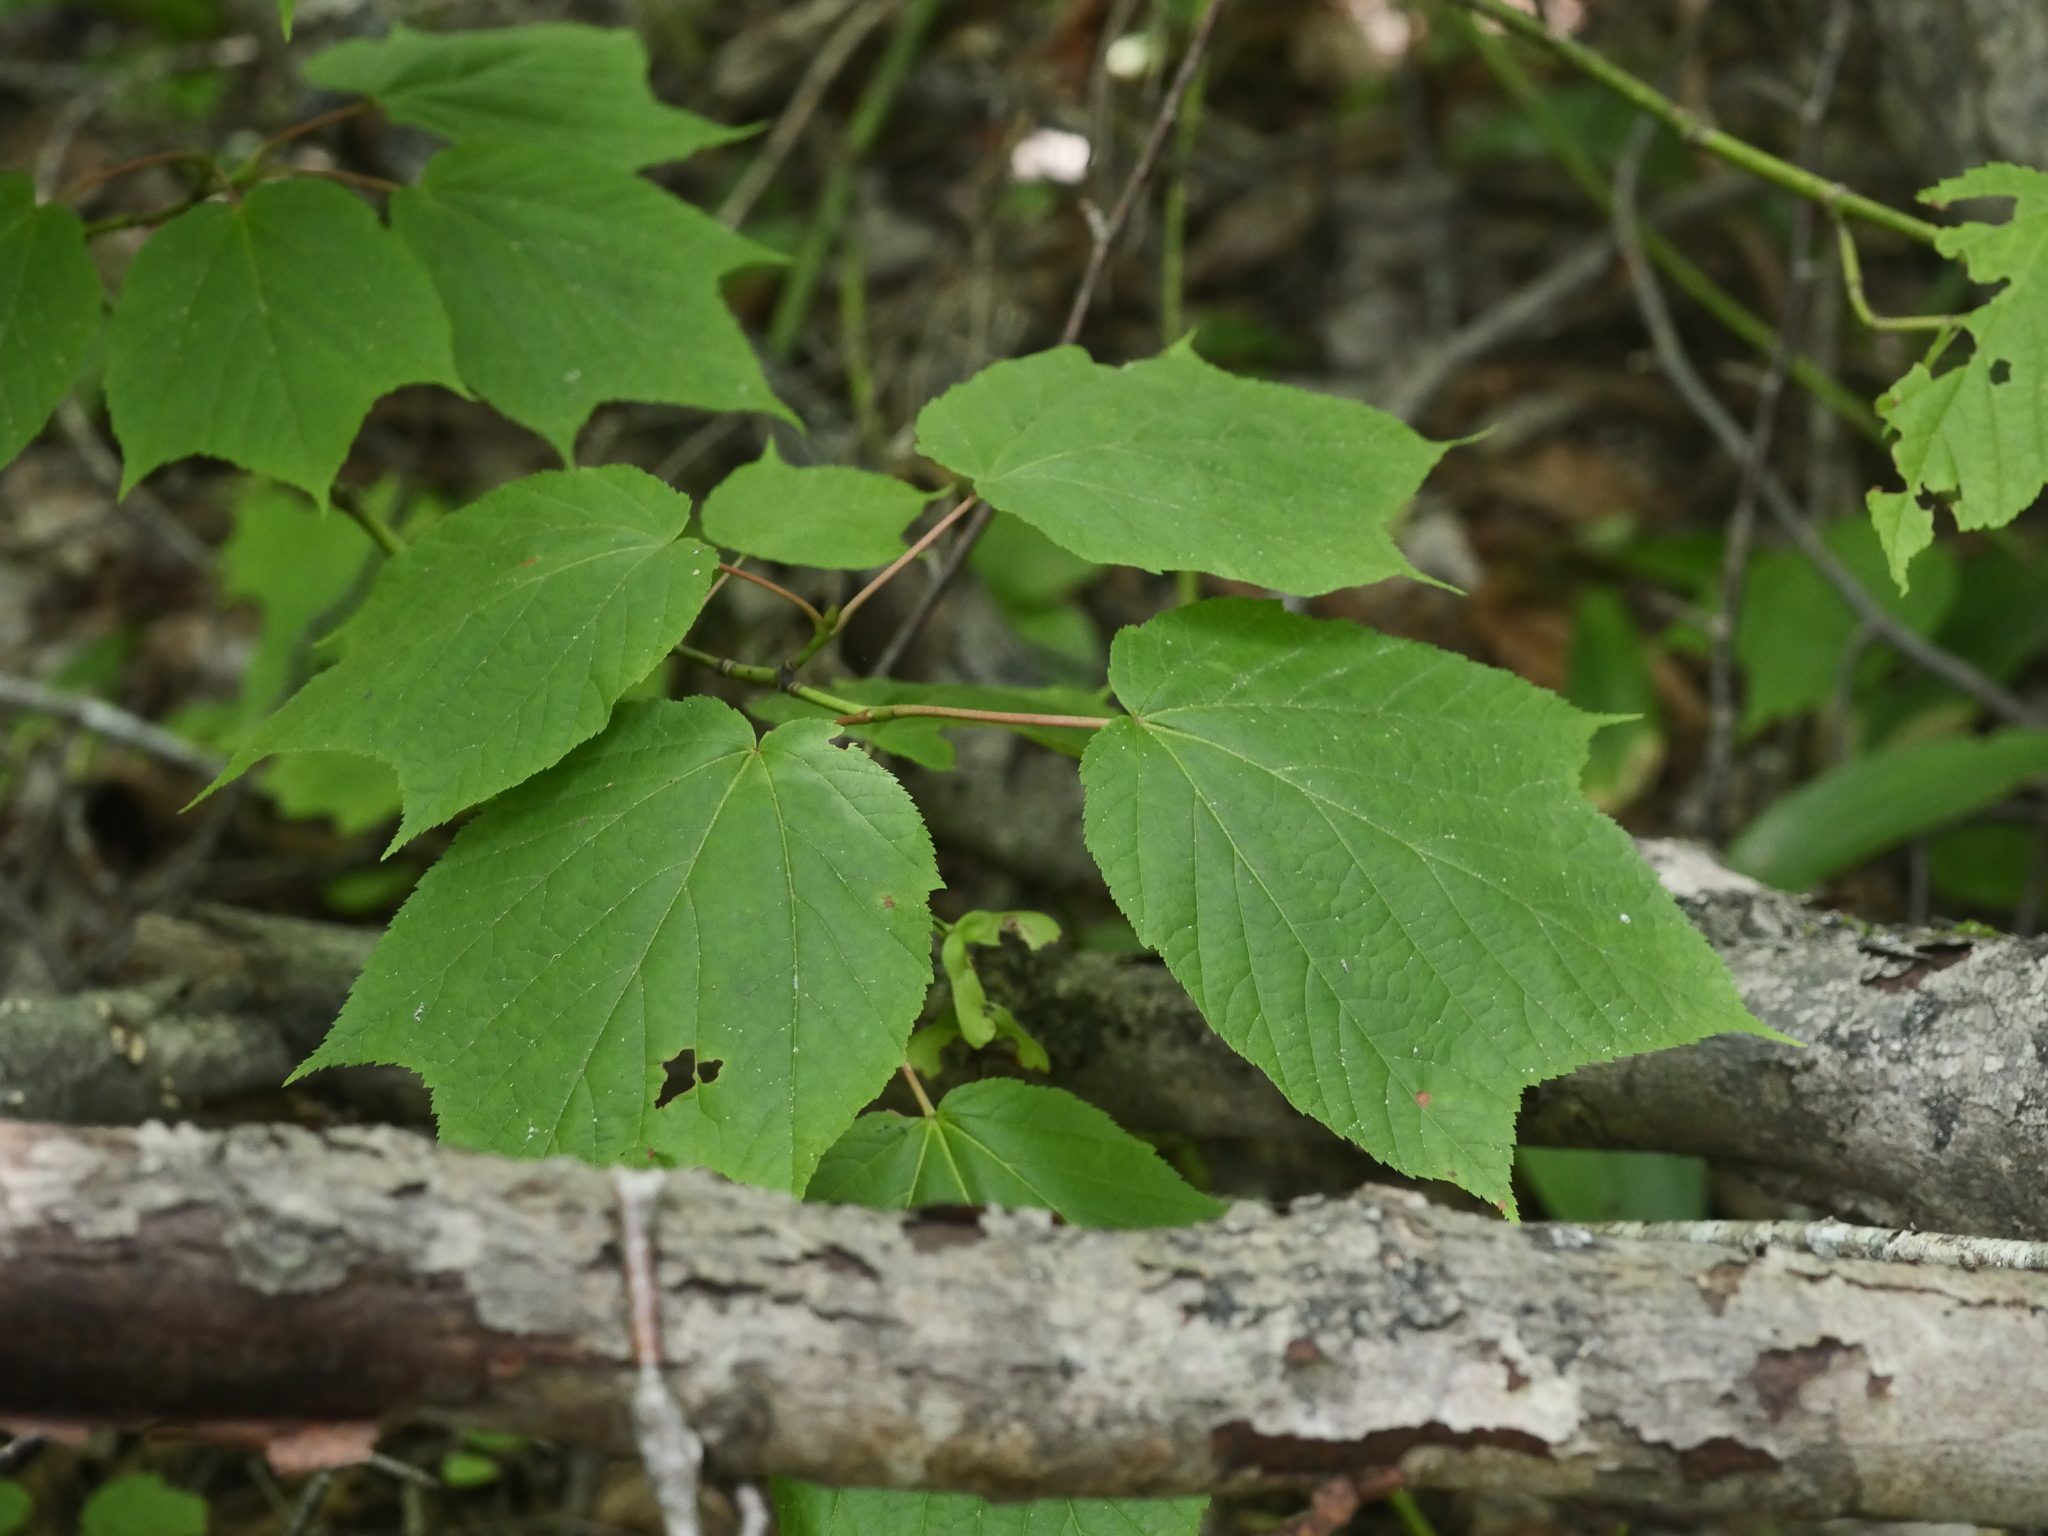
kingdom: Plantae
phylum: Tracheophyta
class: Magnoliopsida
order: Sapindales
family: Sapindaceae
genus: Acer
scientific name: Acer pensylvanicum
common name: Moosewood
